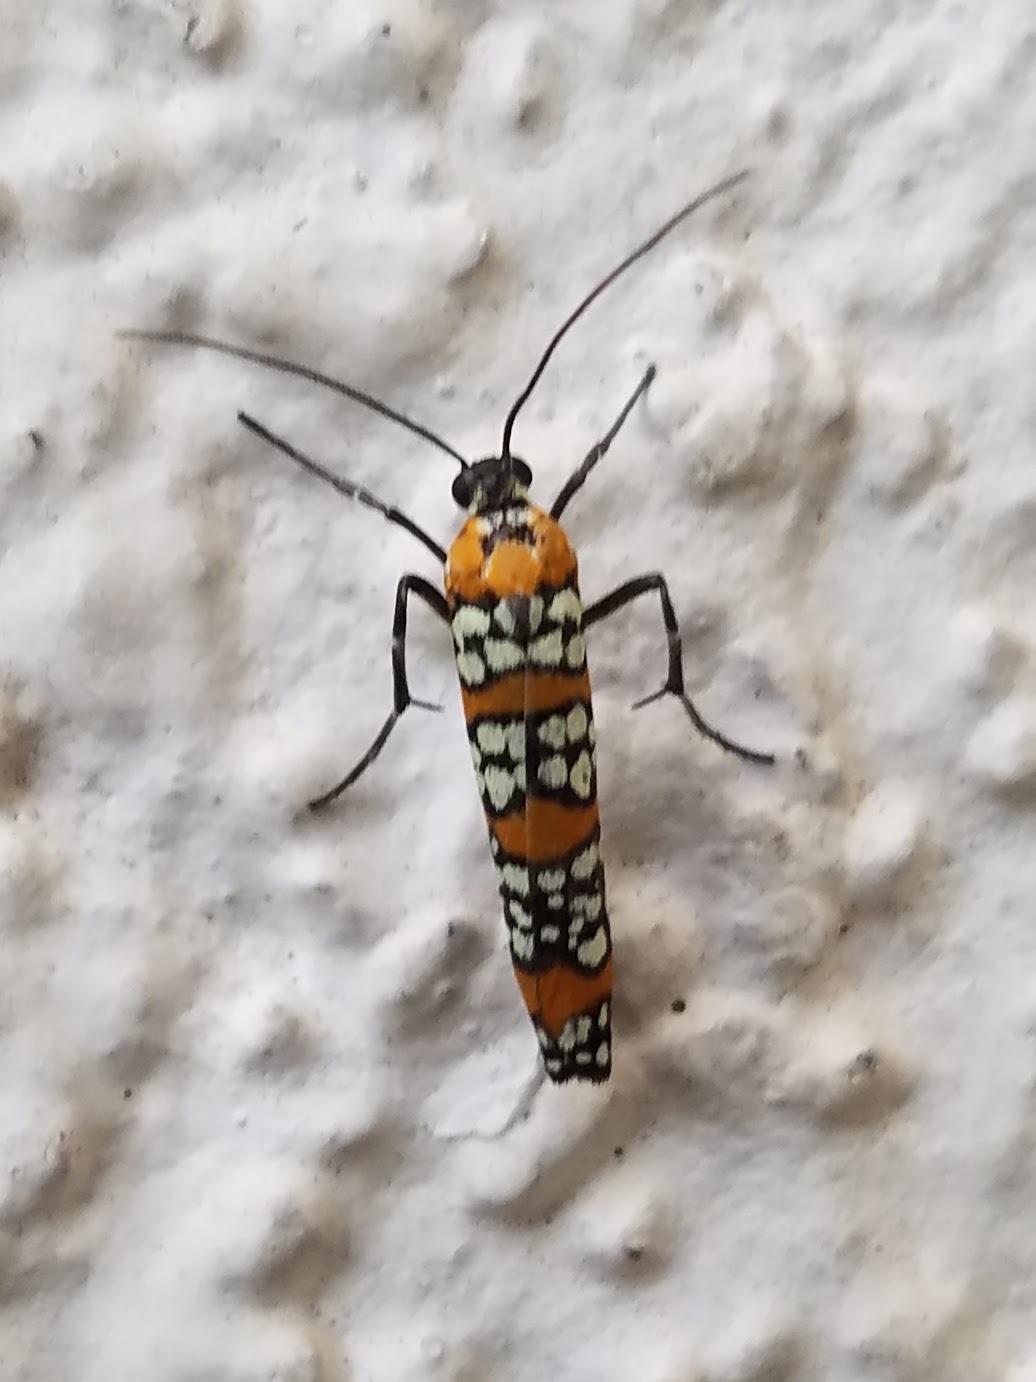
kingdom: Animalia
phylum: Arthropoda
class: Insecta
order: Lepidoptera
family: Attevidae
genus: Atteva
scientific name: Atteva punctella
